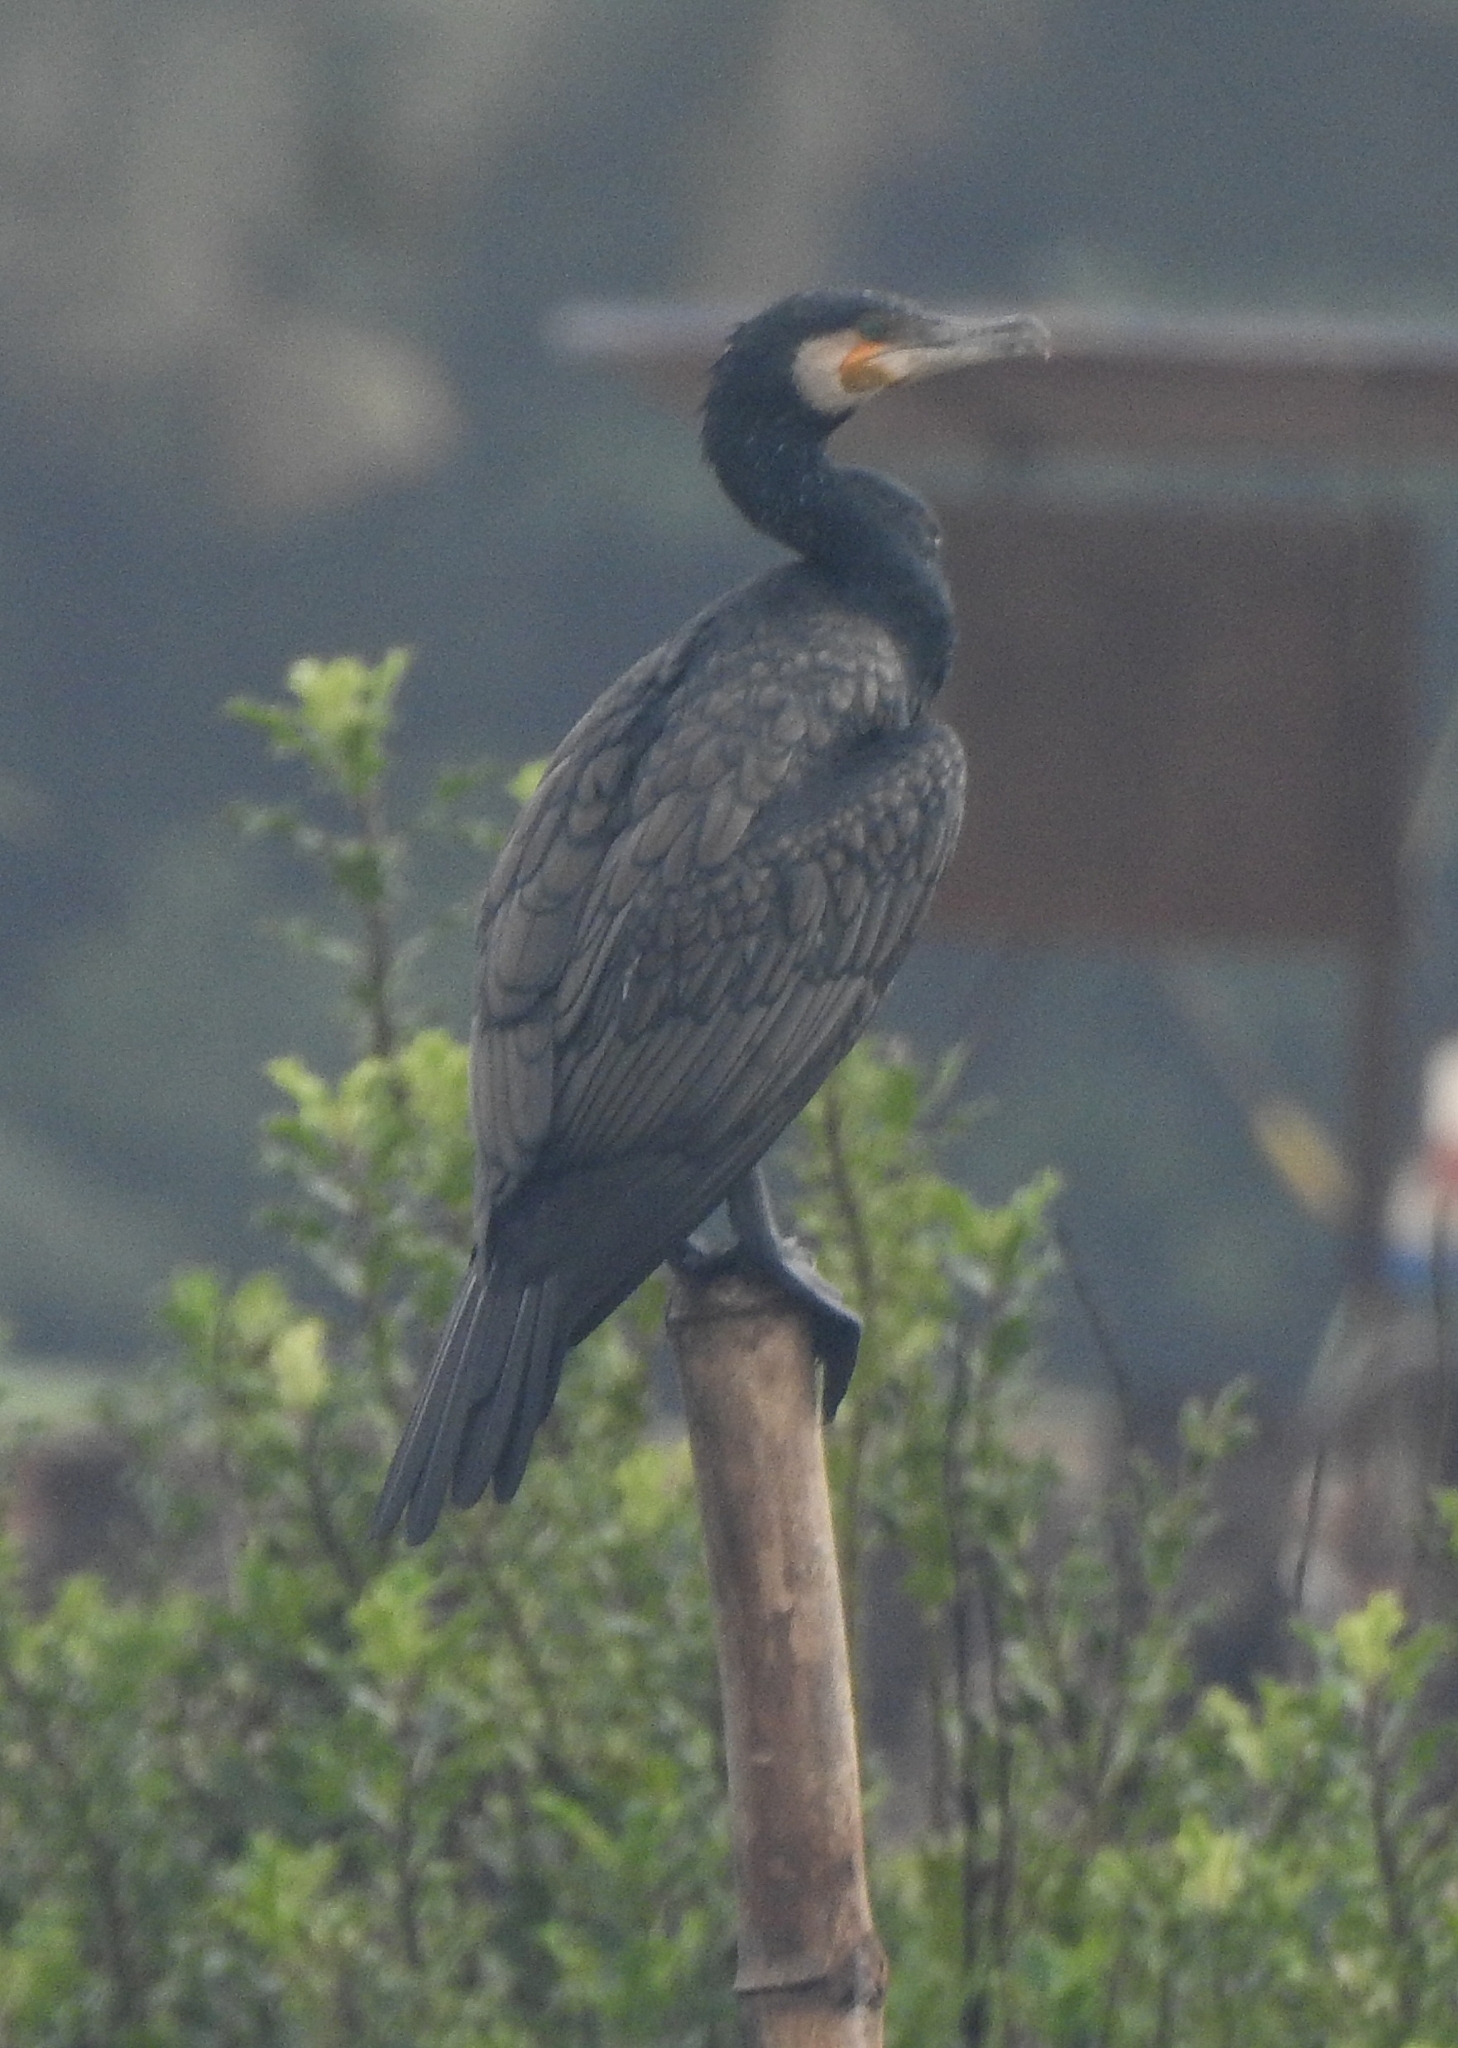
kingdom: Animalia
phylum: Chordata
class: Aves
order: Suliformes
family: Phalacrocoracidae
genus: Phalacrocorax
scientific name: Phalacrocorax carbo
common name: Great cormorant
